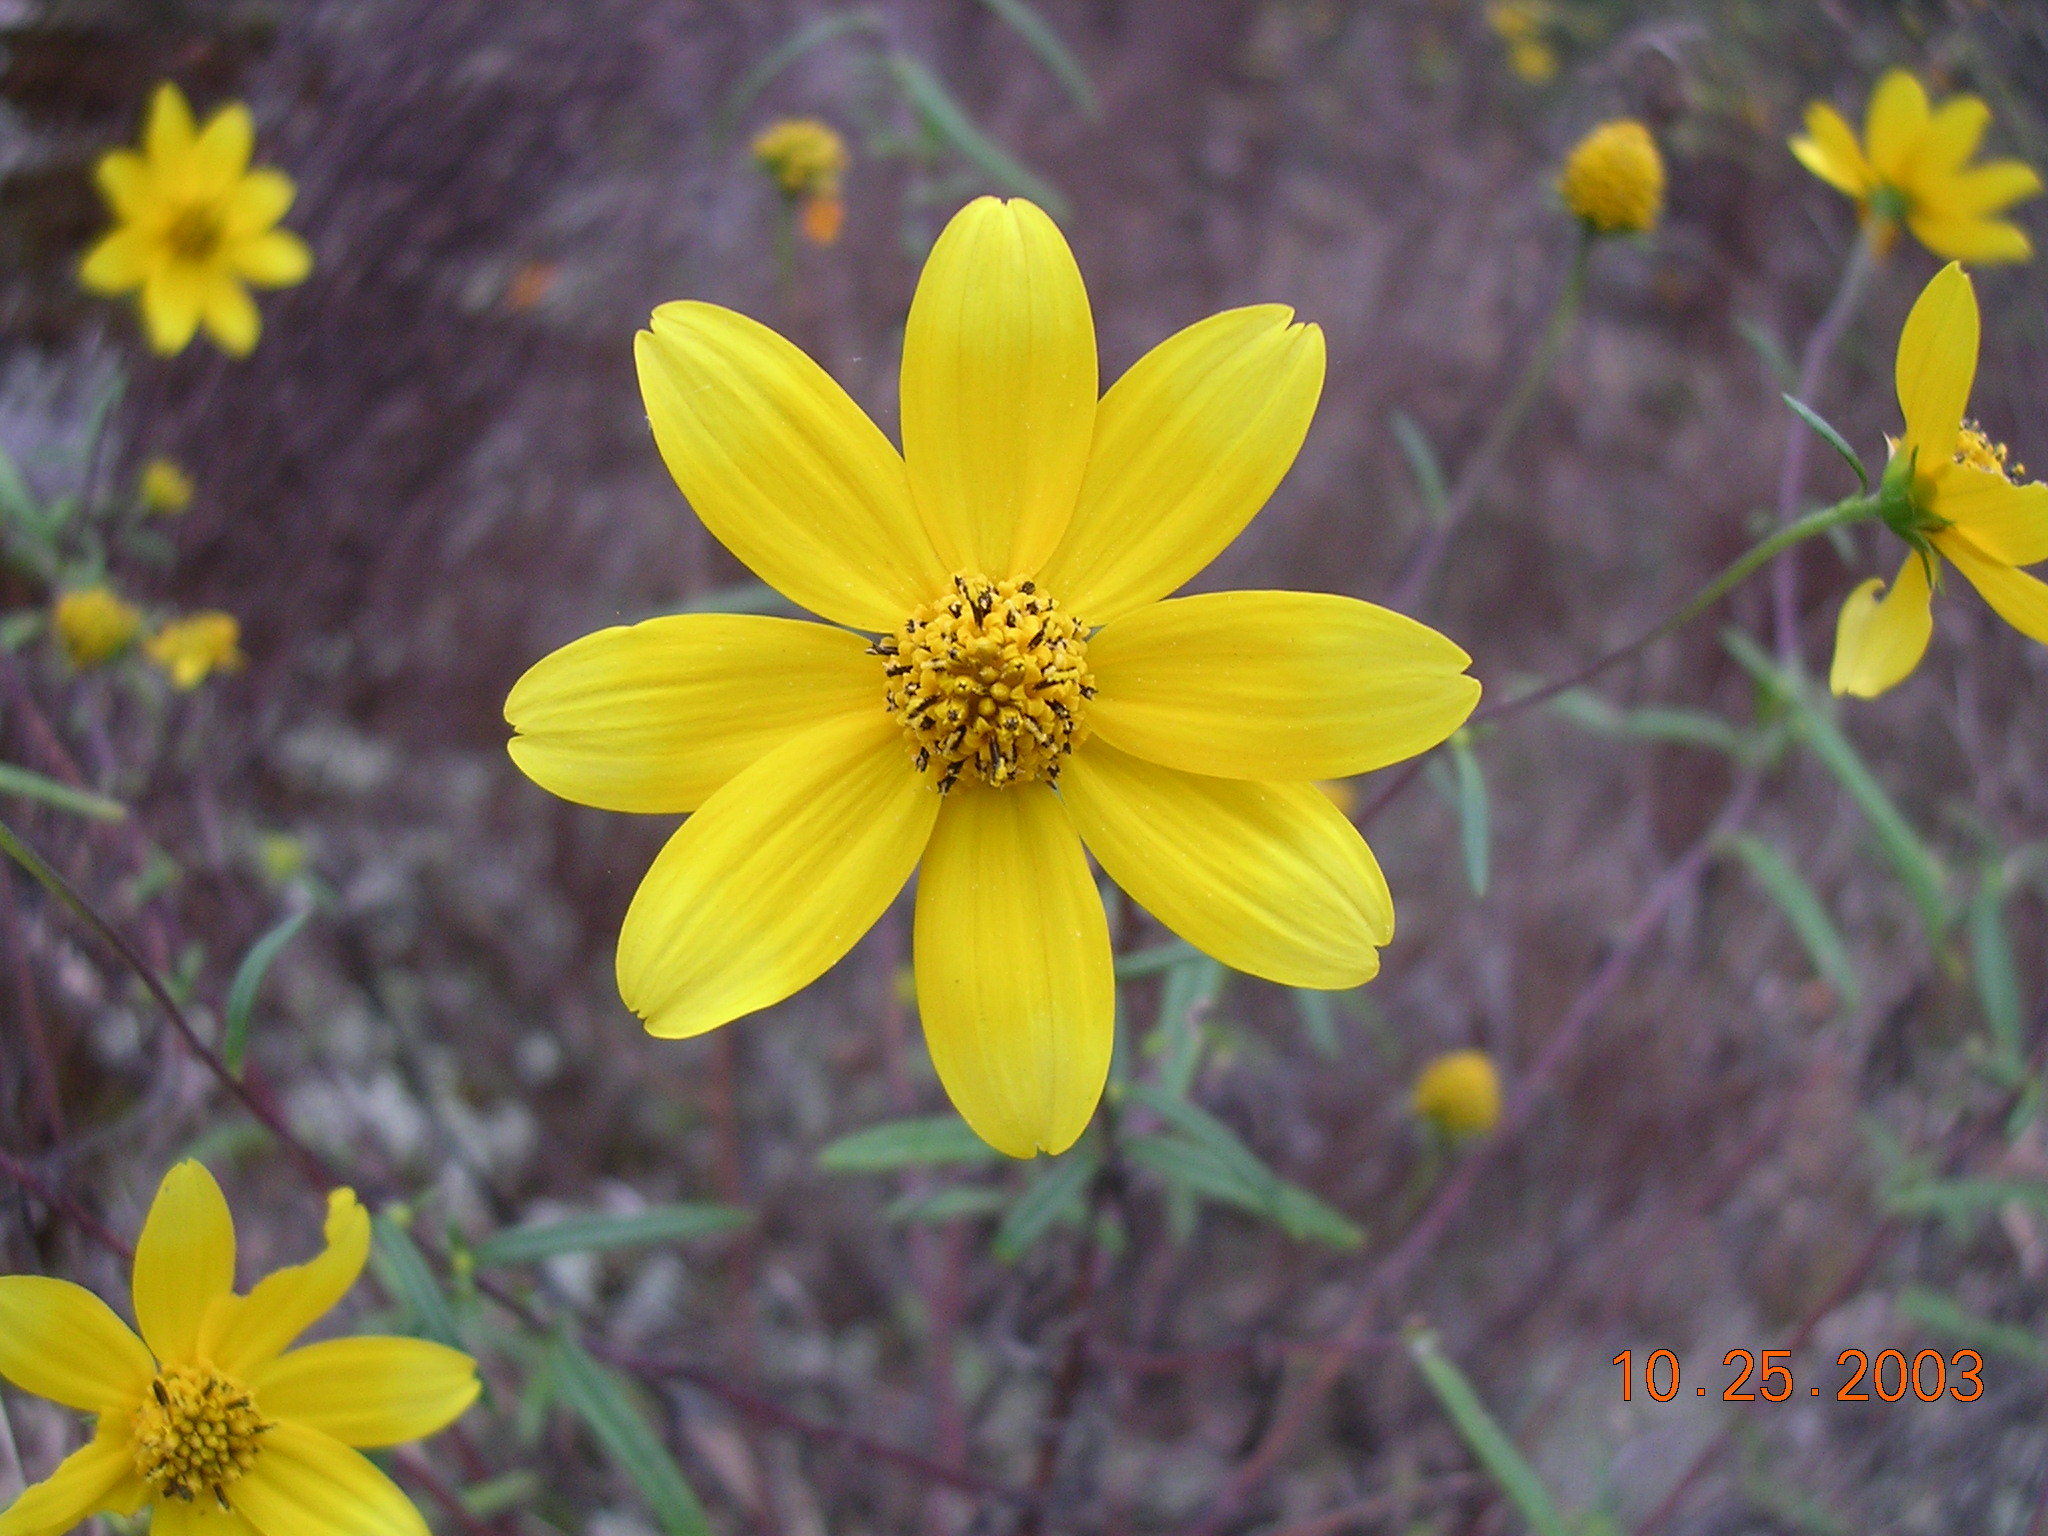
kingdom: Plantae
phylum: Tracheophyta
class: Magnoliopsida
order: Asterales
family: Asteraceae
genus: Helianthus
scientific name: Helianthus porteri
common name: Porter's sunflower
